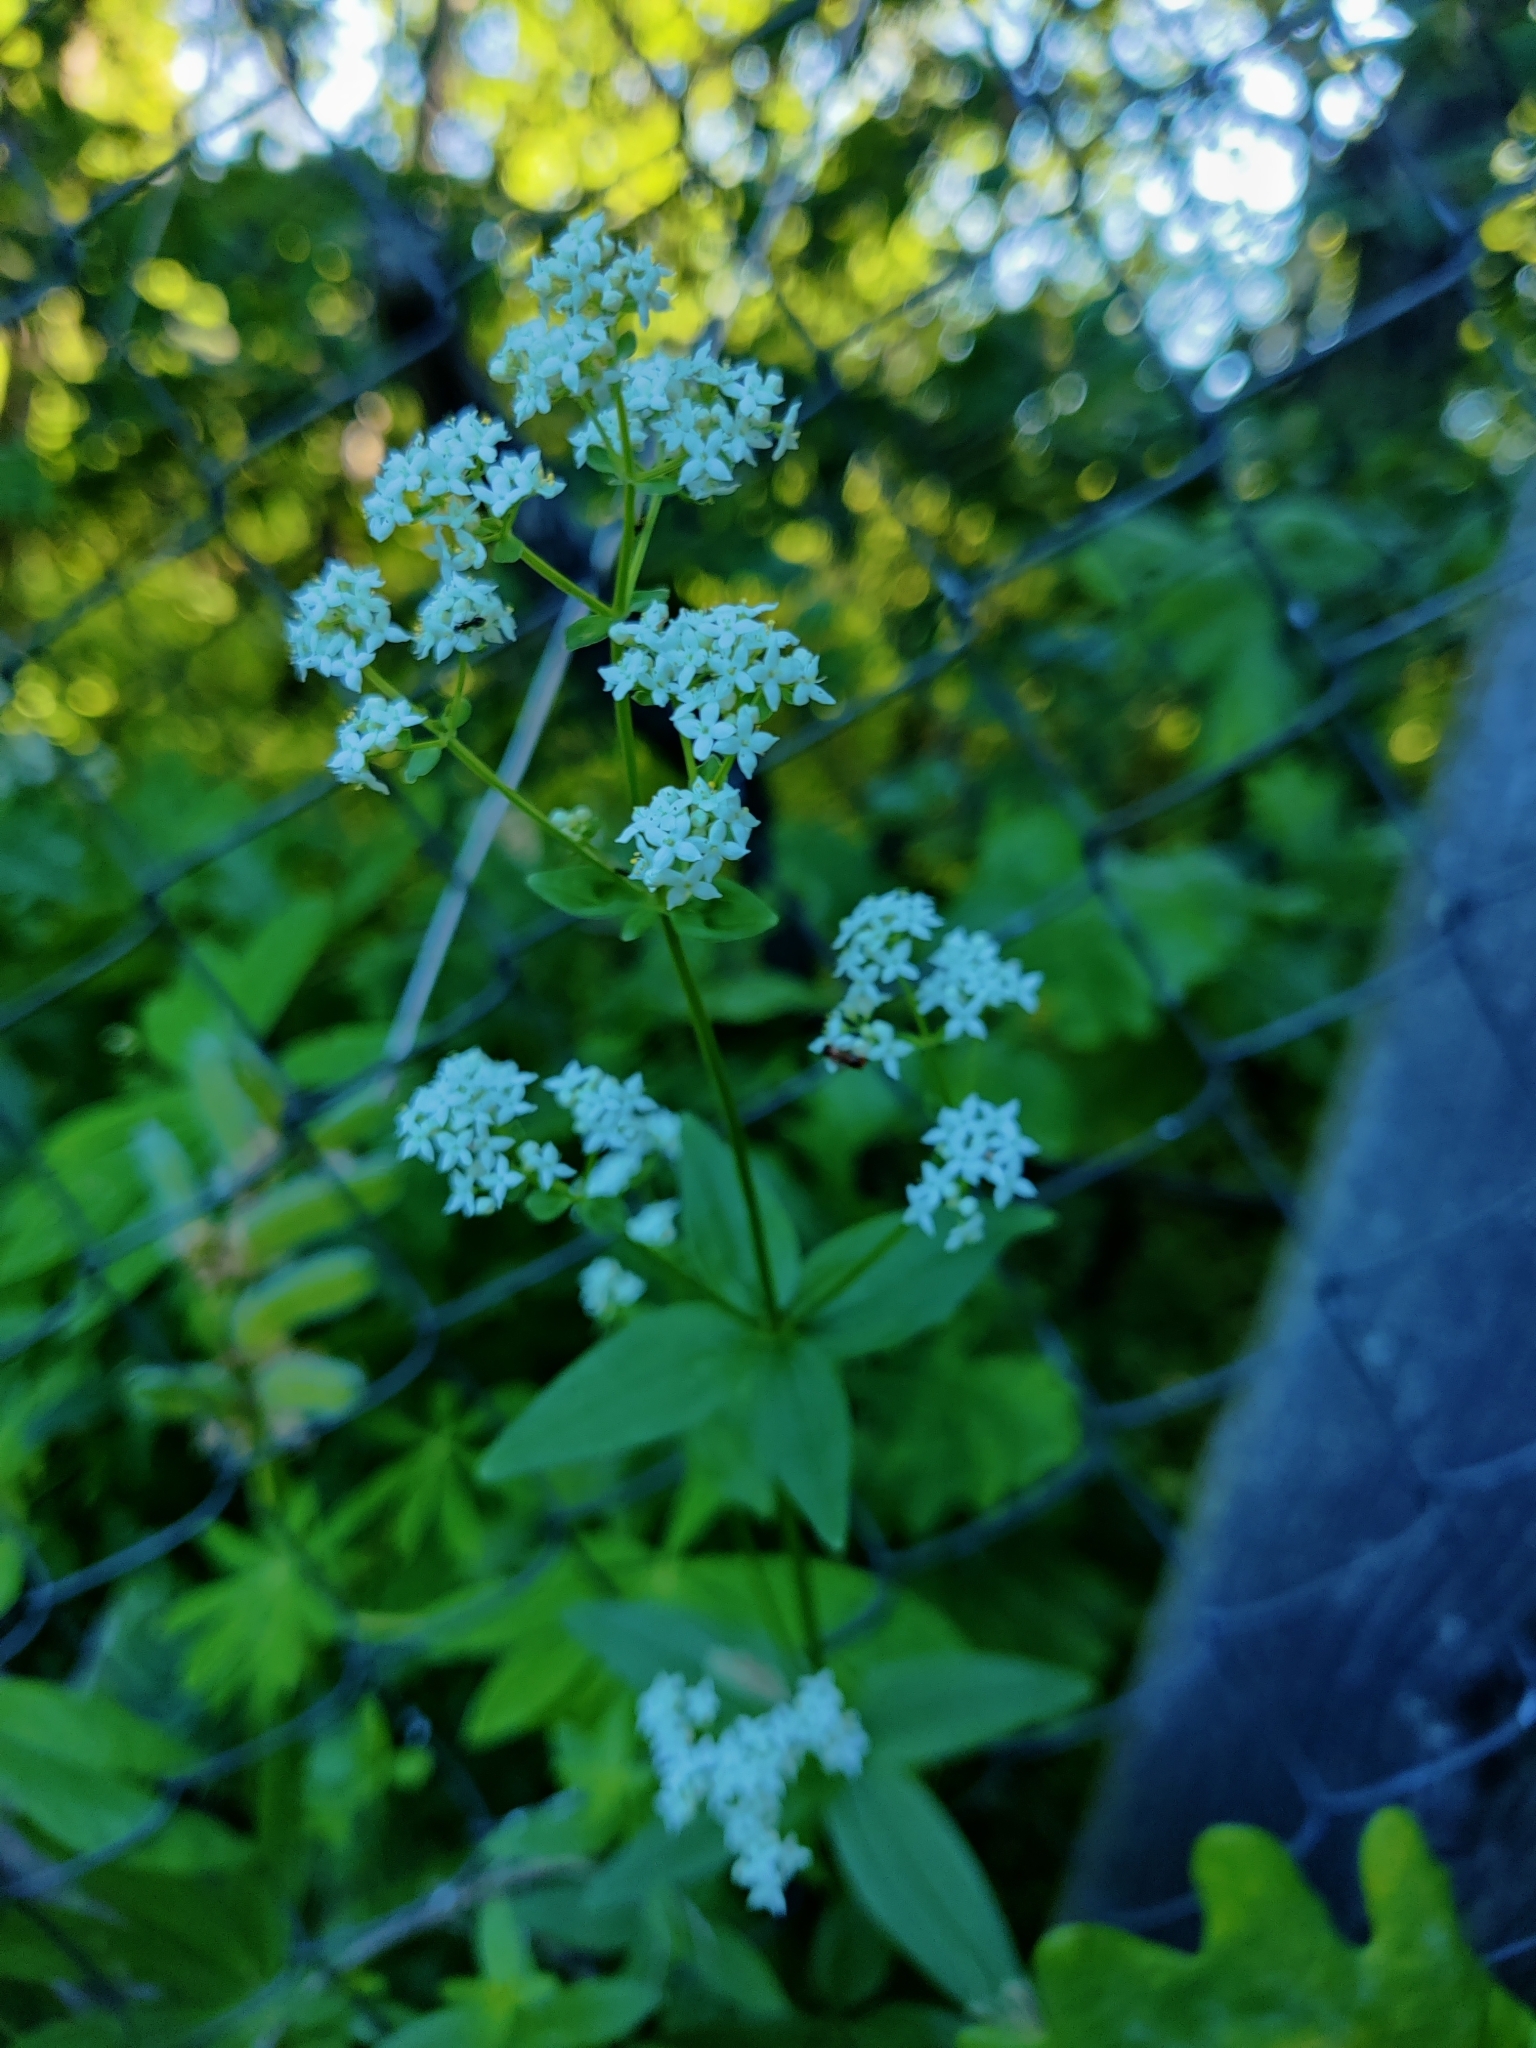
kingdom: Plantae
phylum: Tracheophyta
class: Magnoliopsida
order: Gentianales
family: Rubiaceae
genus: Galium
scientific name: Galium boreale
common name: Northern bedstraw
